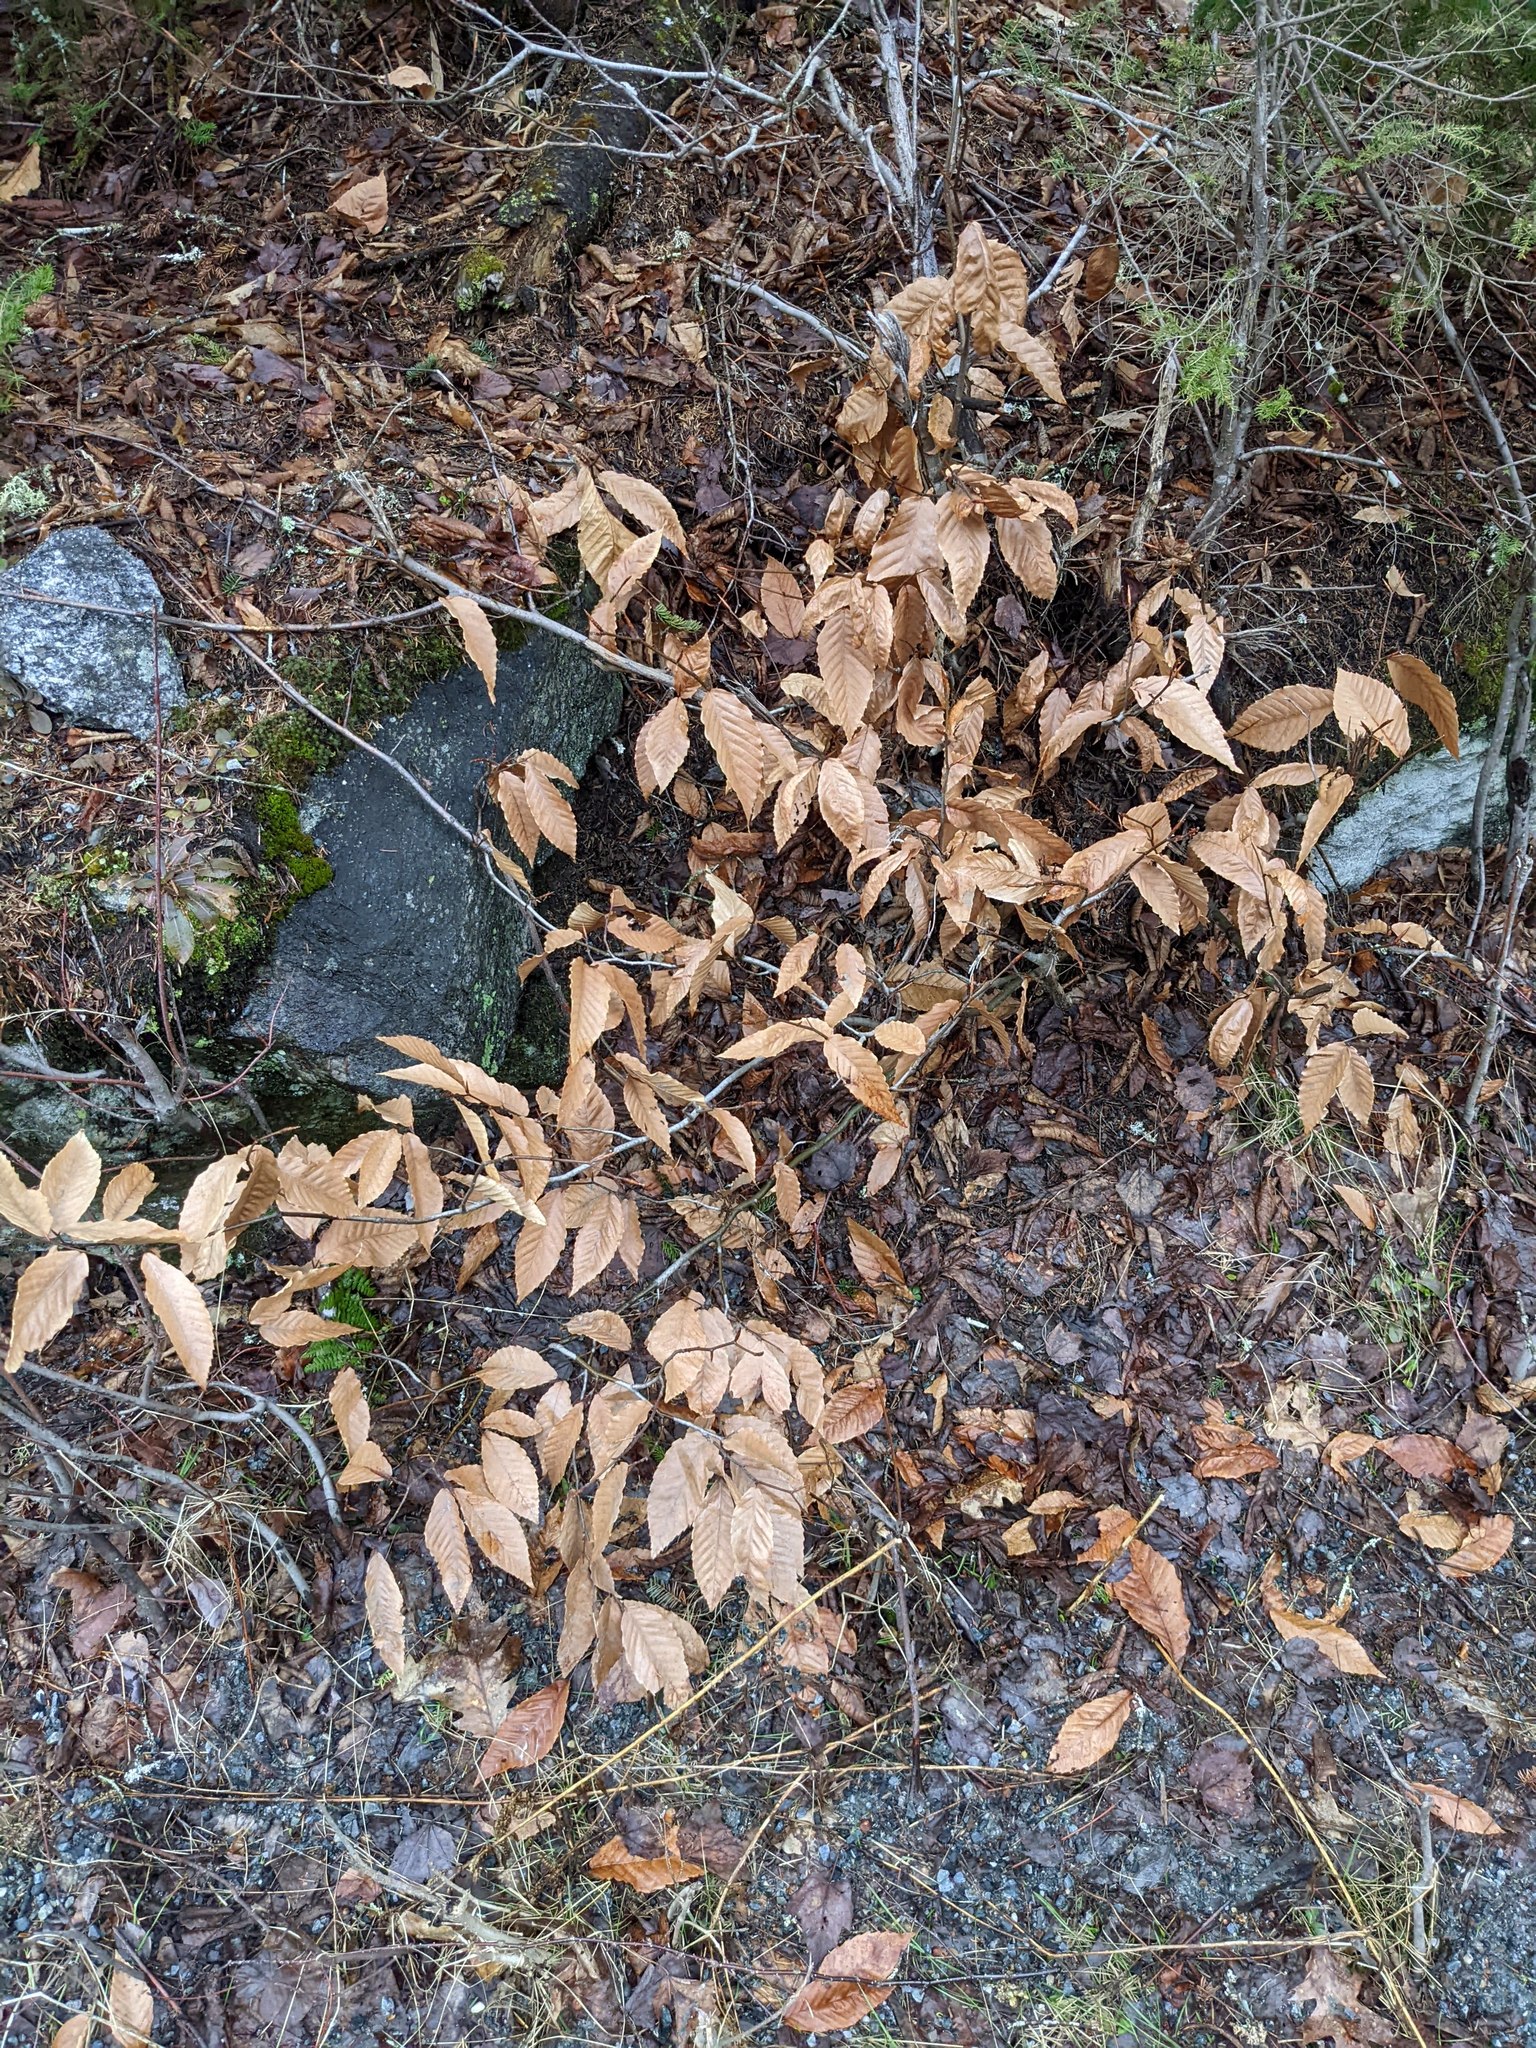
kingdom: Plantae
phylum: Tracheophyta
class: Magnoliopsida
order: Fagales
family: Fagaceae
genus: Fagus
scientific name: Fagus grandifolia
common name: American beech
